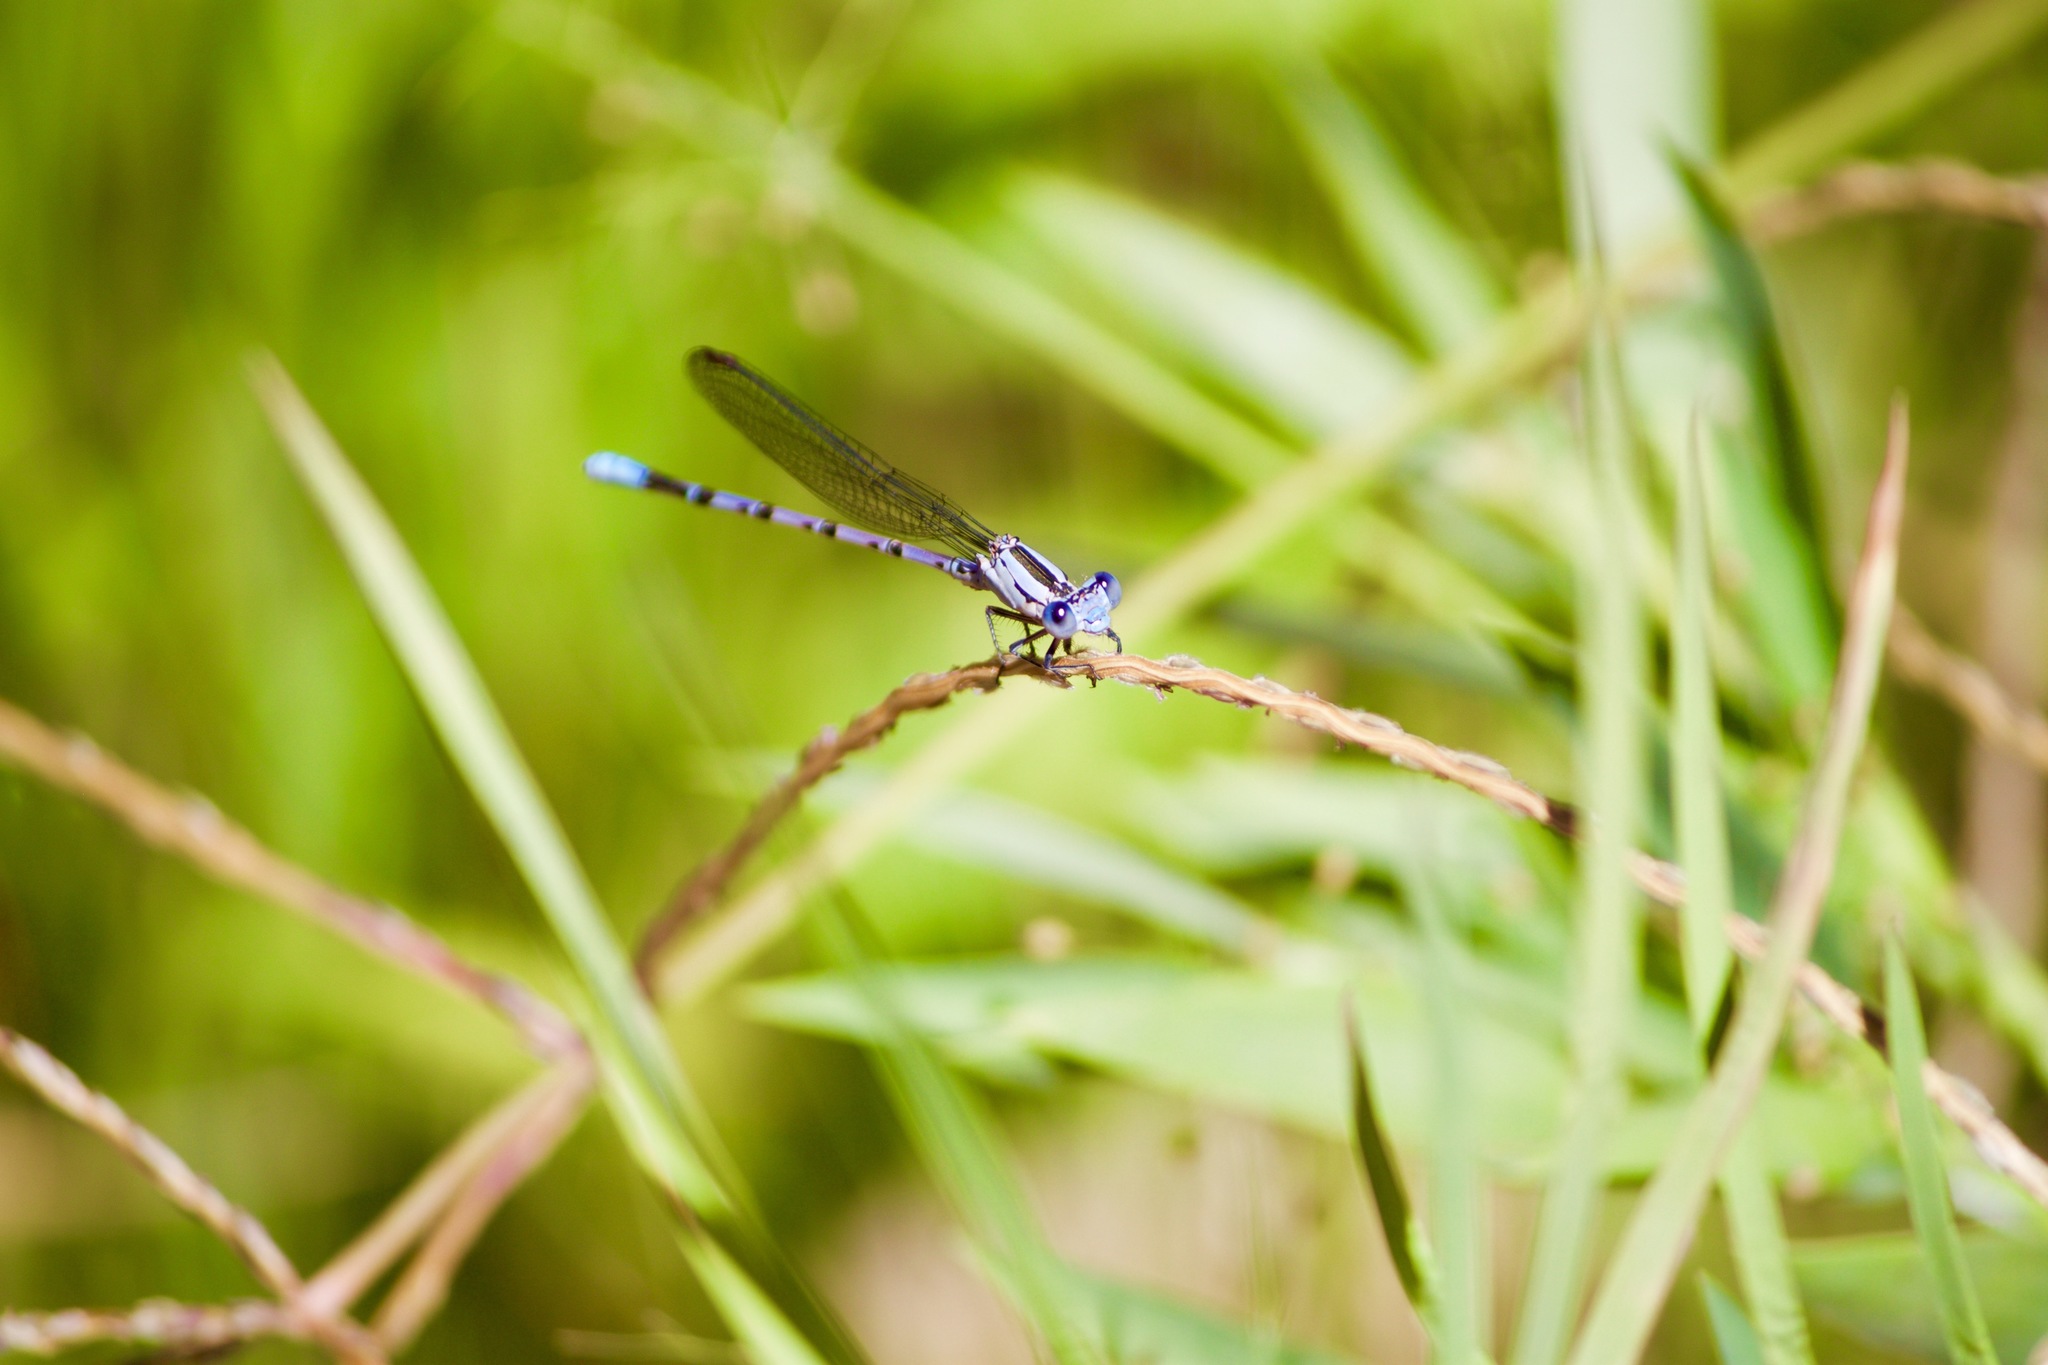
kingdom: Animalia
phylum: Arthropoda
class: Insecta
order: Odonata
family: Coenagrionidae
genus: Argia
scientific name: Argia vivida
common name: Vivid dancer
